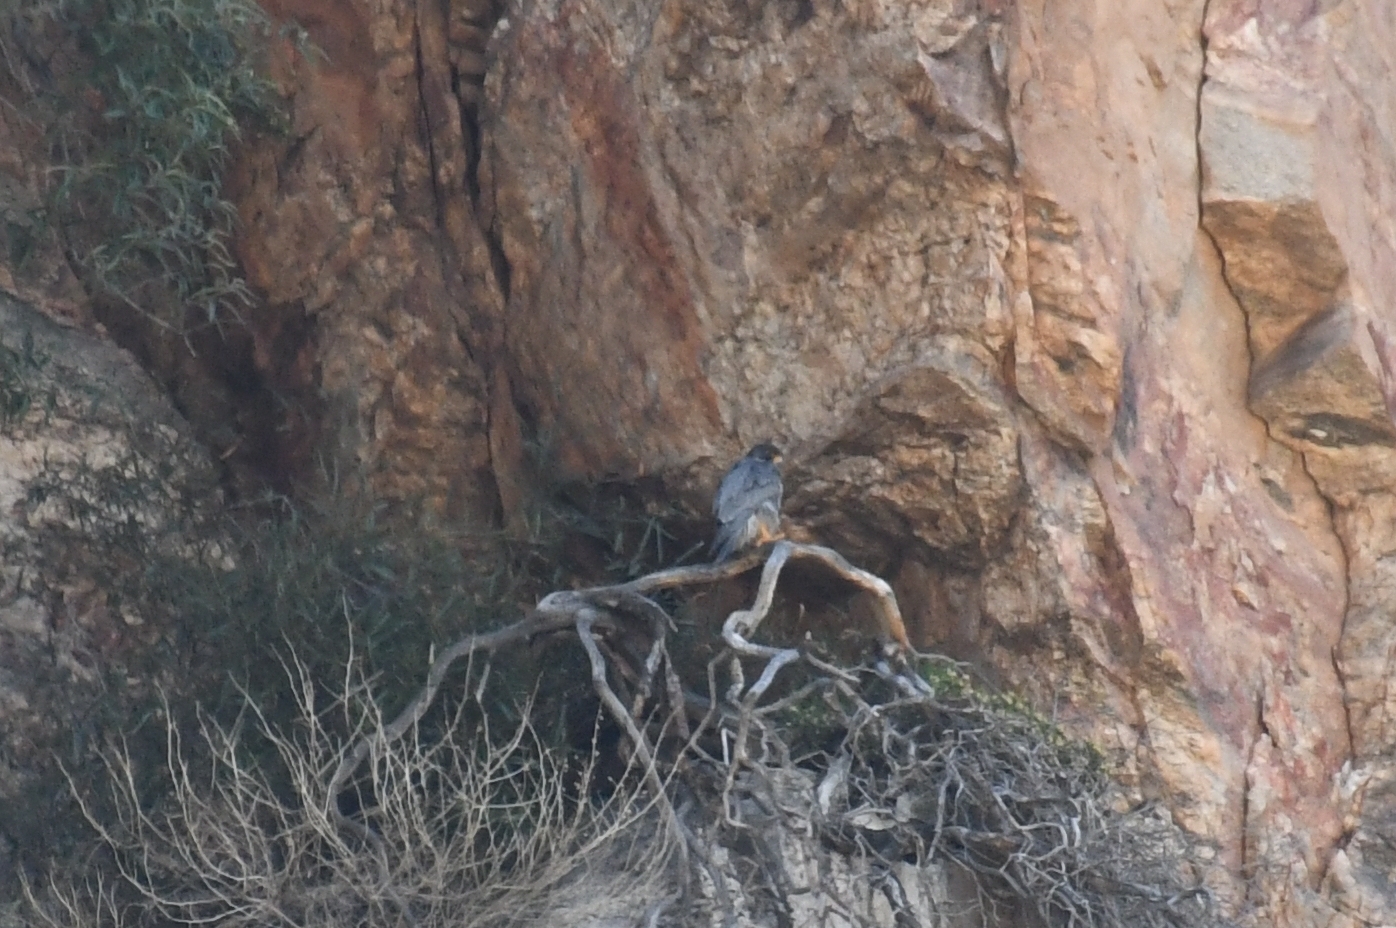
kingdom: Animalia
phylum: Chordata
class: Aves
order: Falconiformes
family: Falconidae
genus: Falco
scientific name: Falco peregrinus
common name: Peregrine falcon
